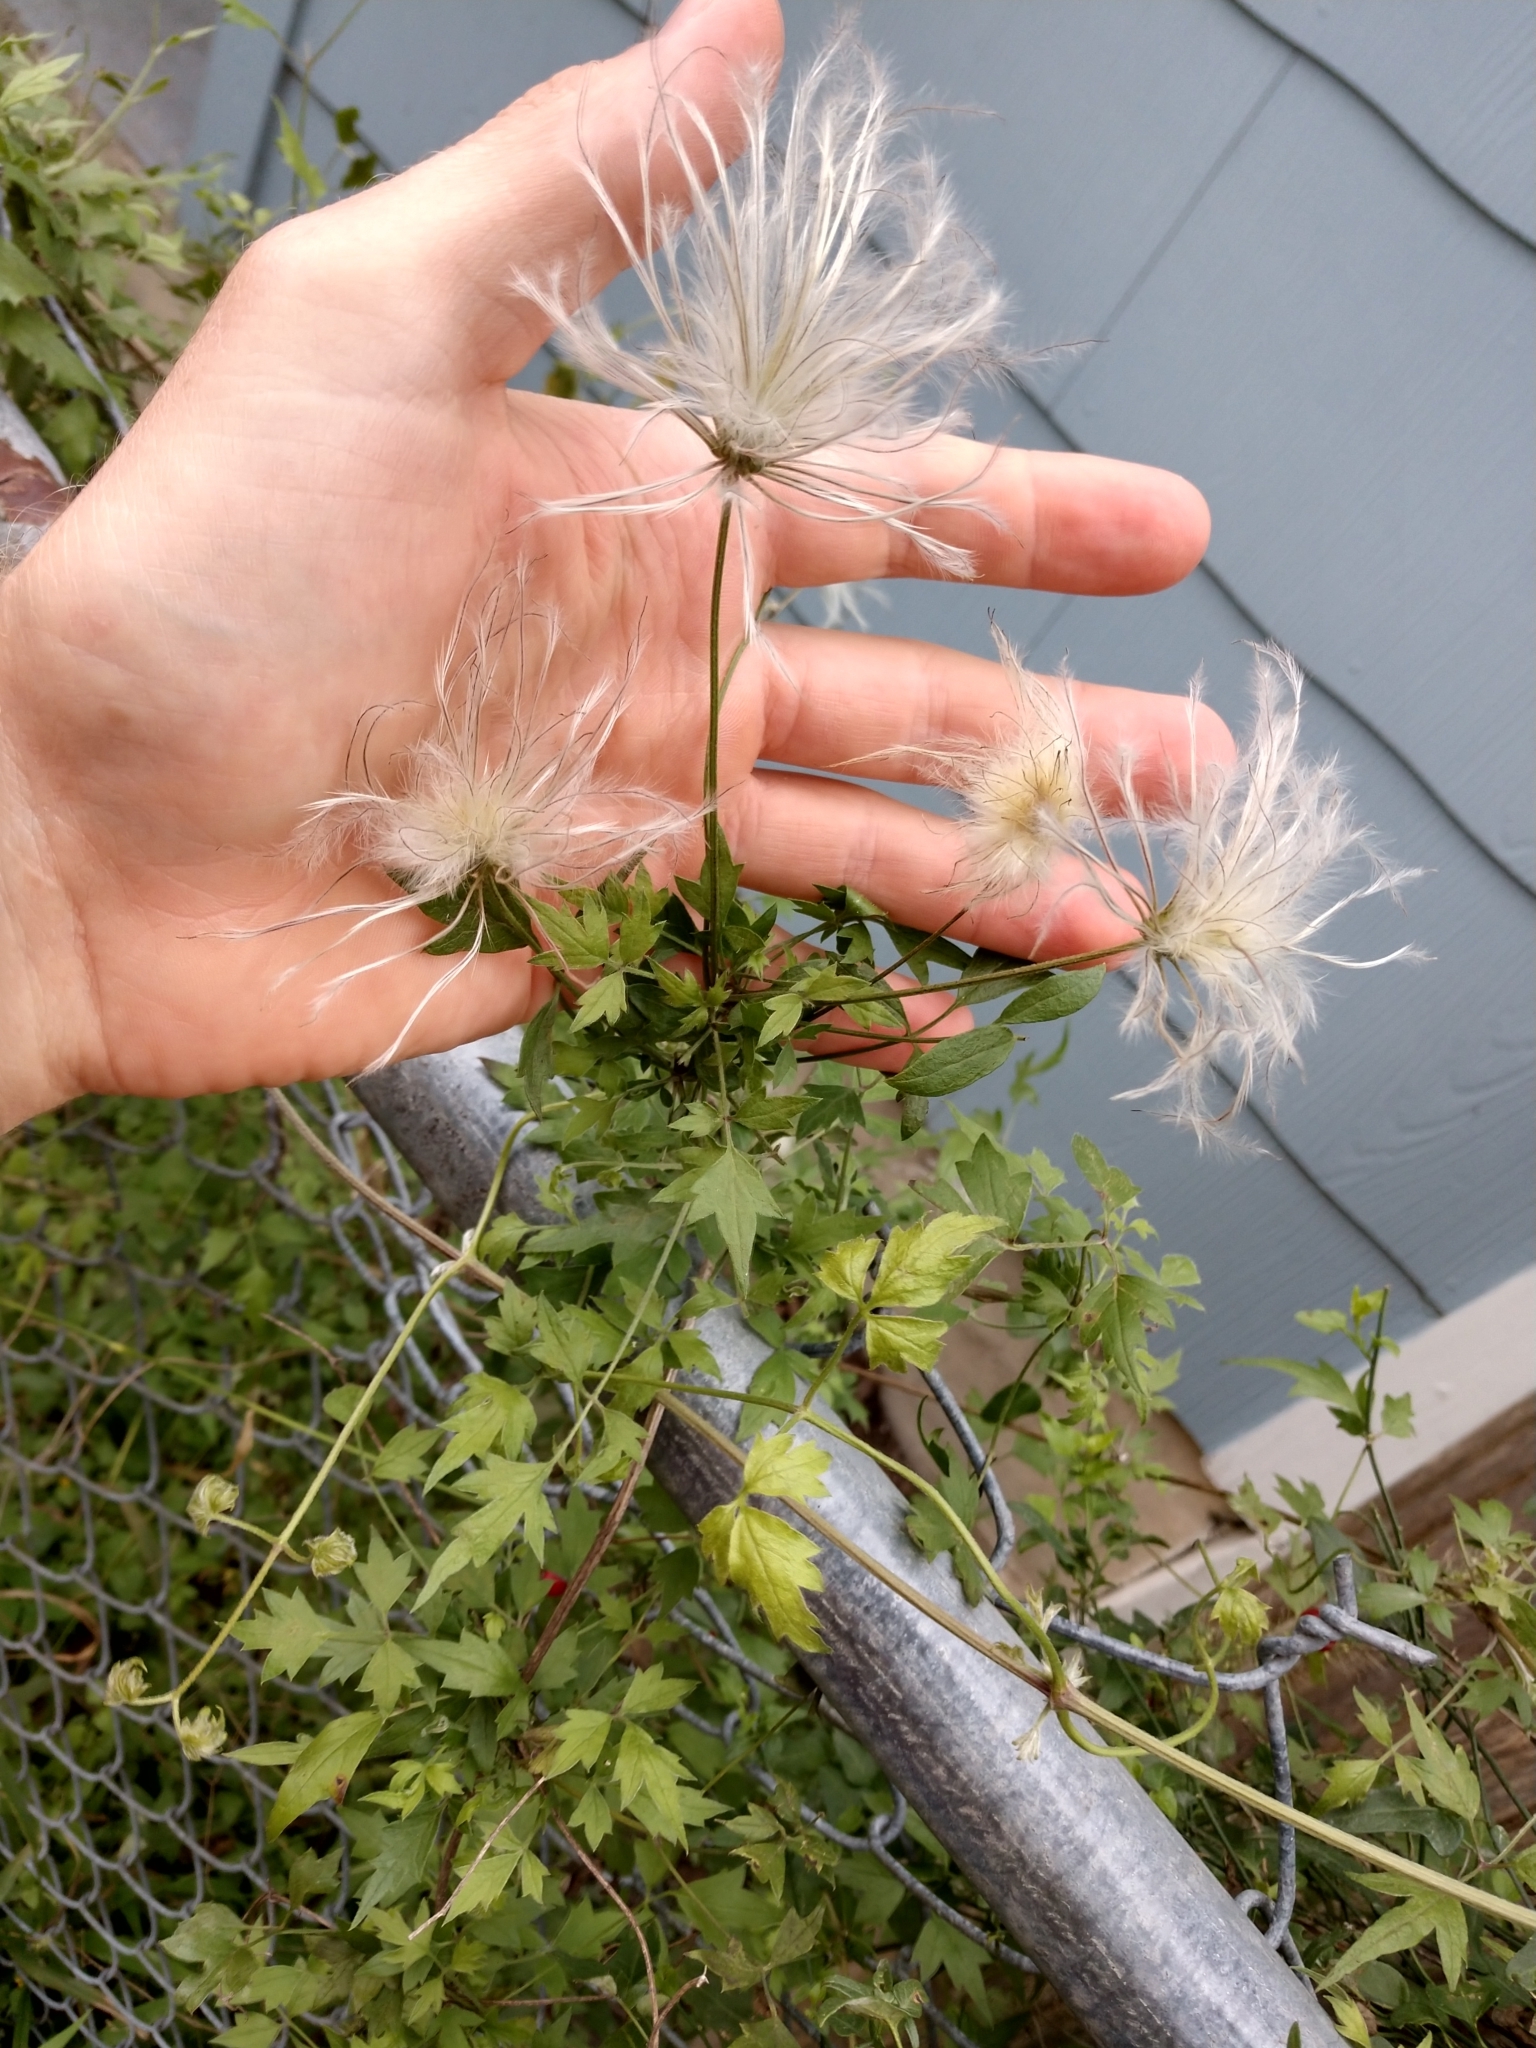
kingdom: Plantae
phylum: Tracheophyta
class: Magnoliopsida
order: Ranunculales
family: Ranunculaceae
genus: Clematis
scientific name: Clematis drummondii
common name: Texas virgin's bower
